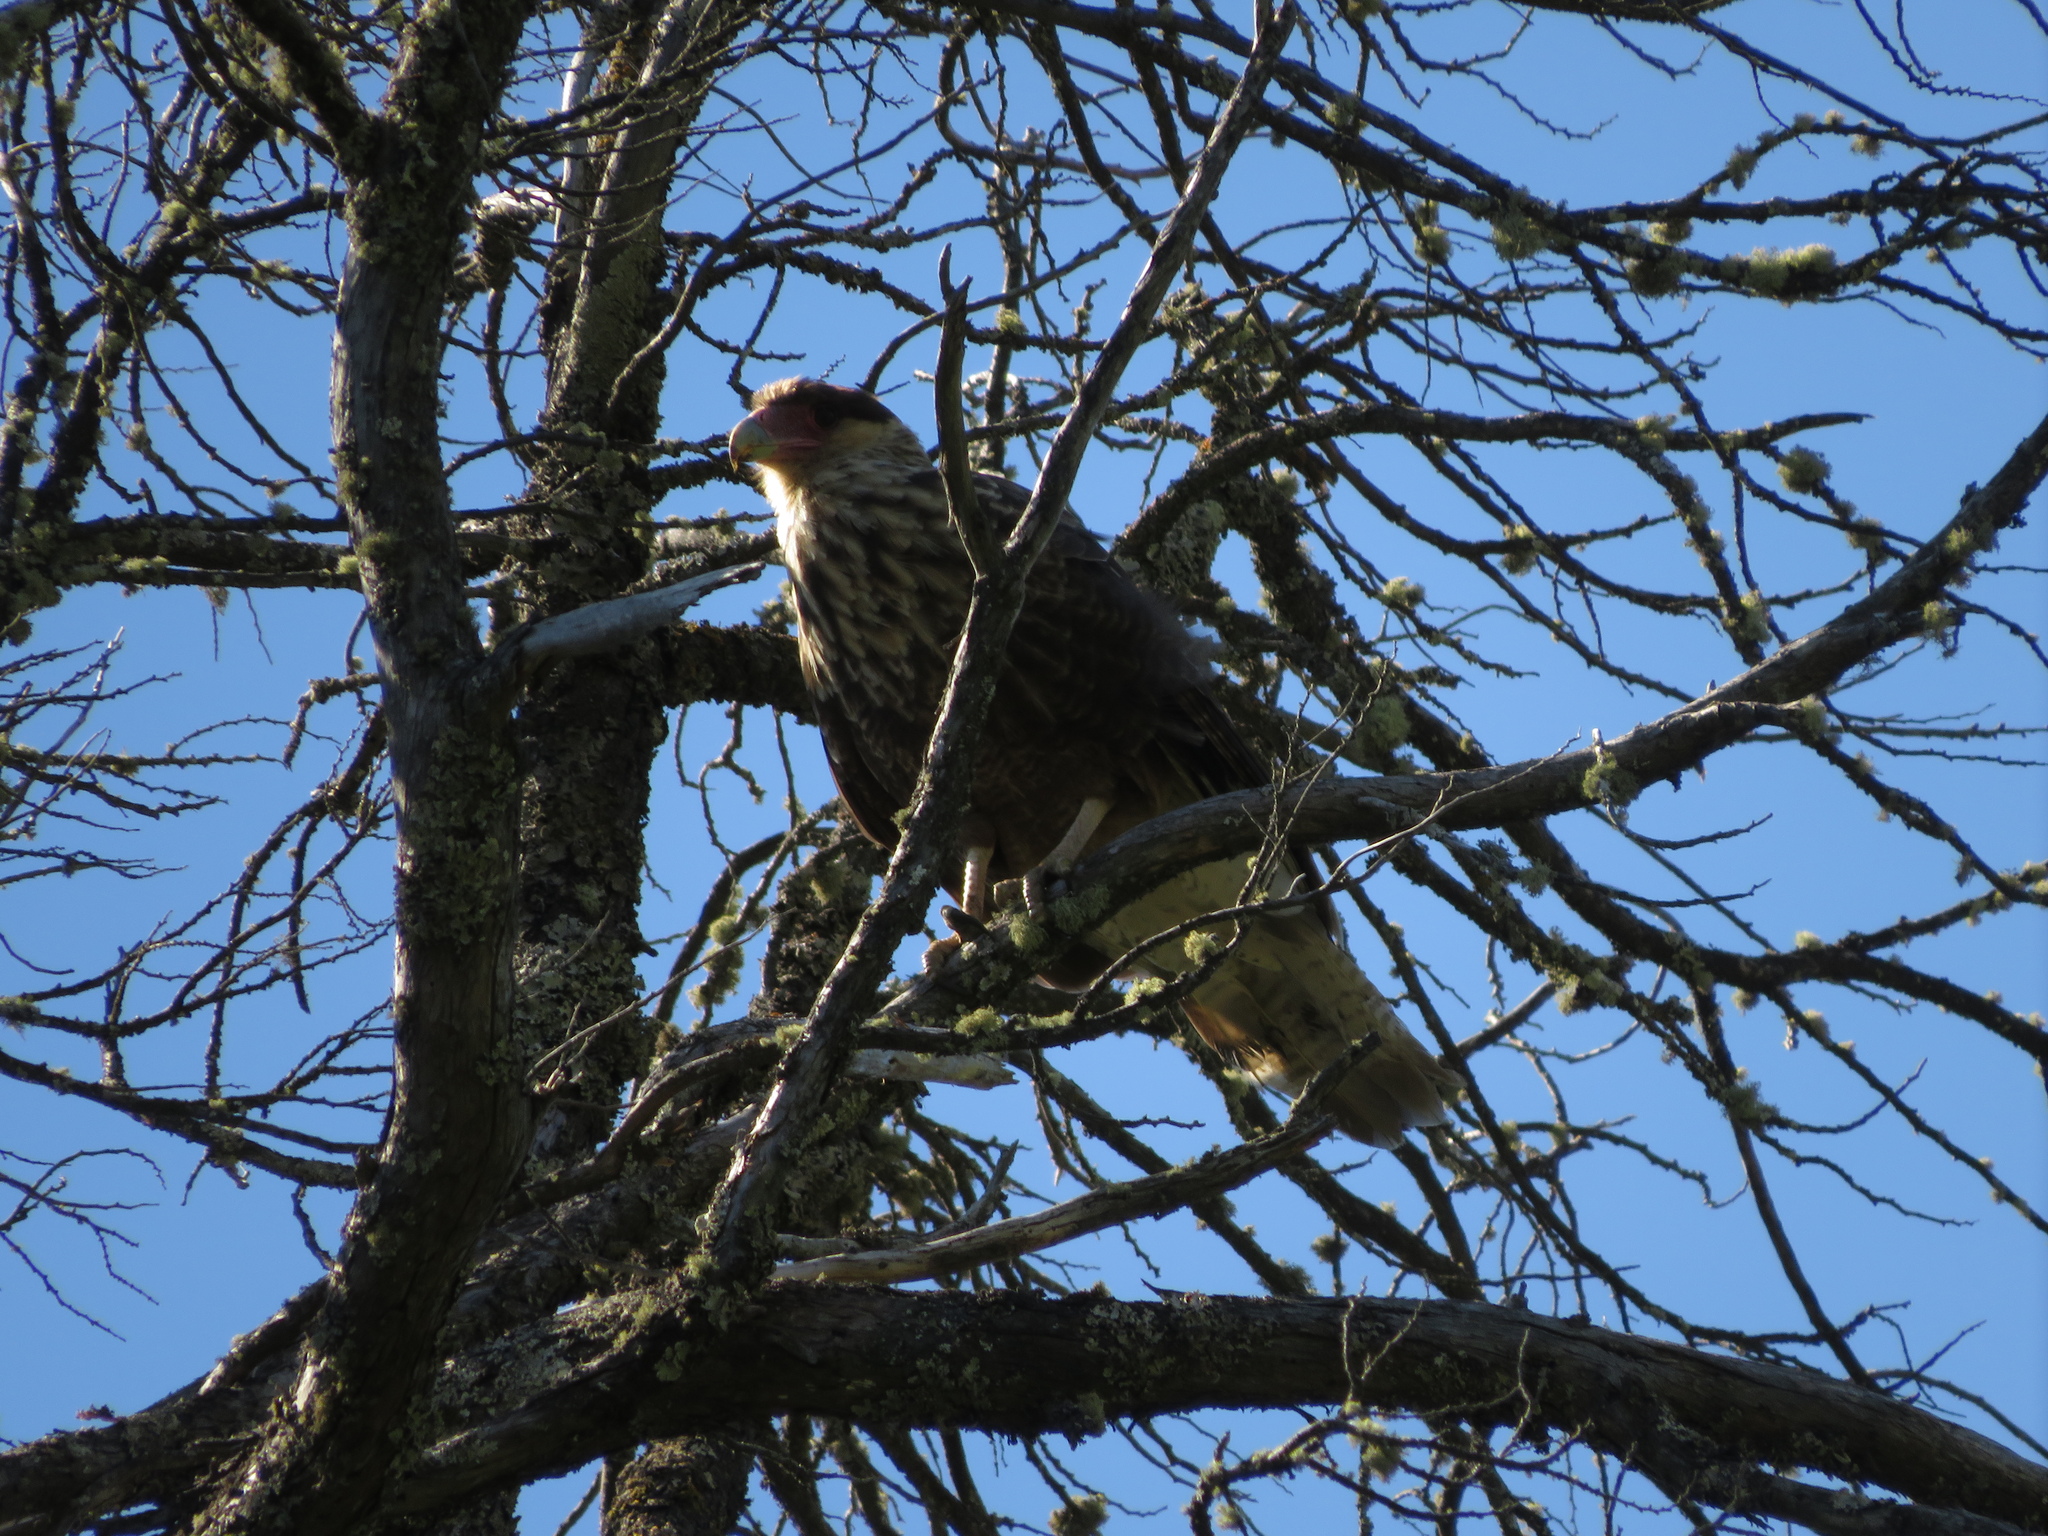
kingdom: Animalia
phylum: Chordata
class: Aves
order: Falconiformes
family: Falconidae
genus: Caracara
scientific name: Caracara plancus
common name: Southern caracara
